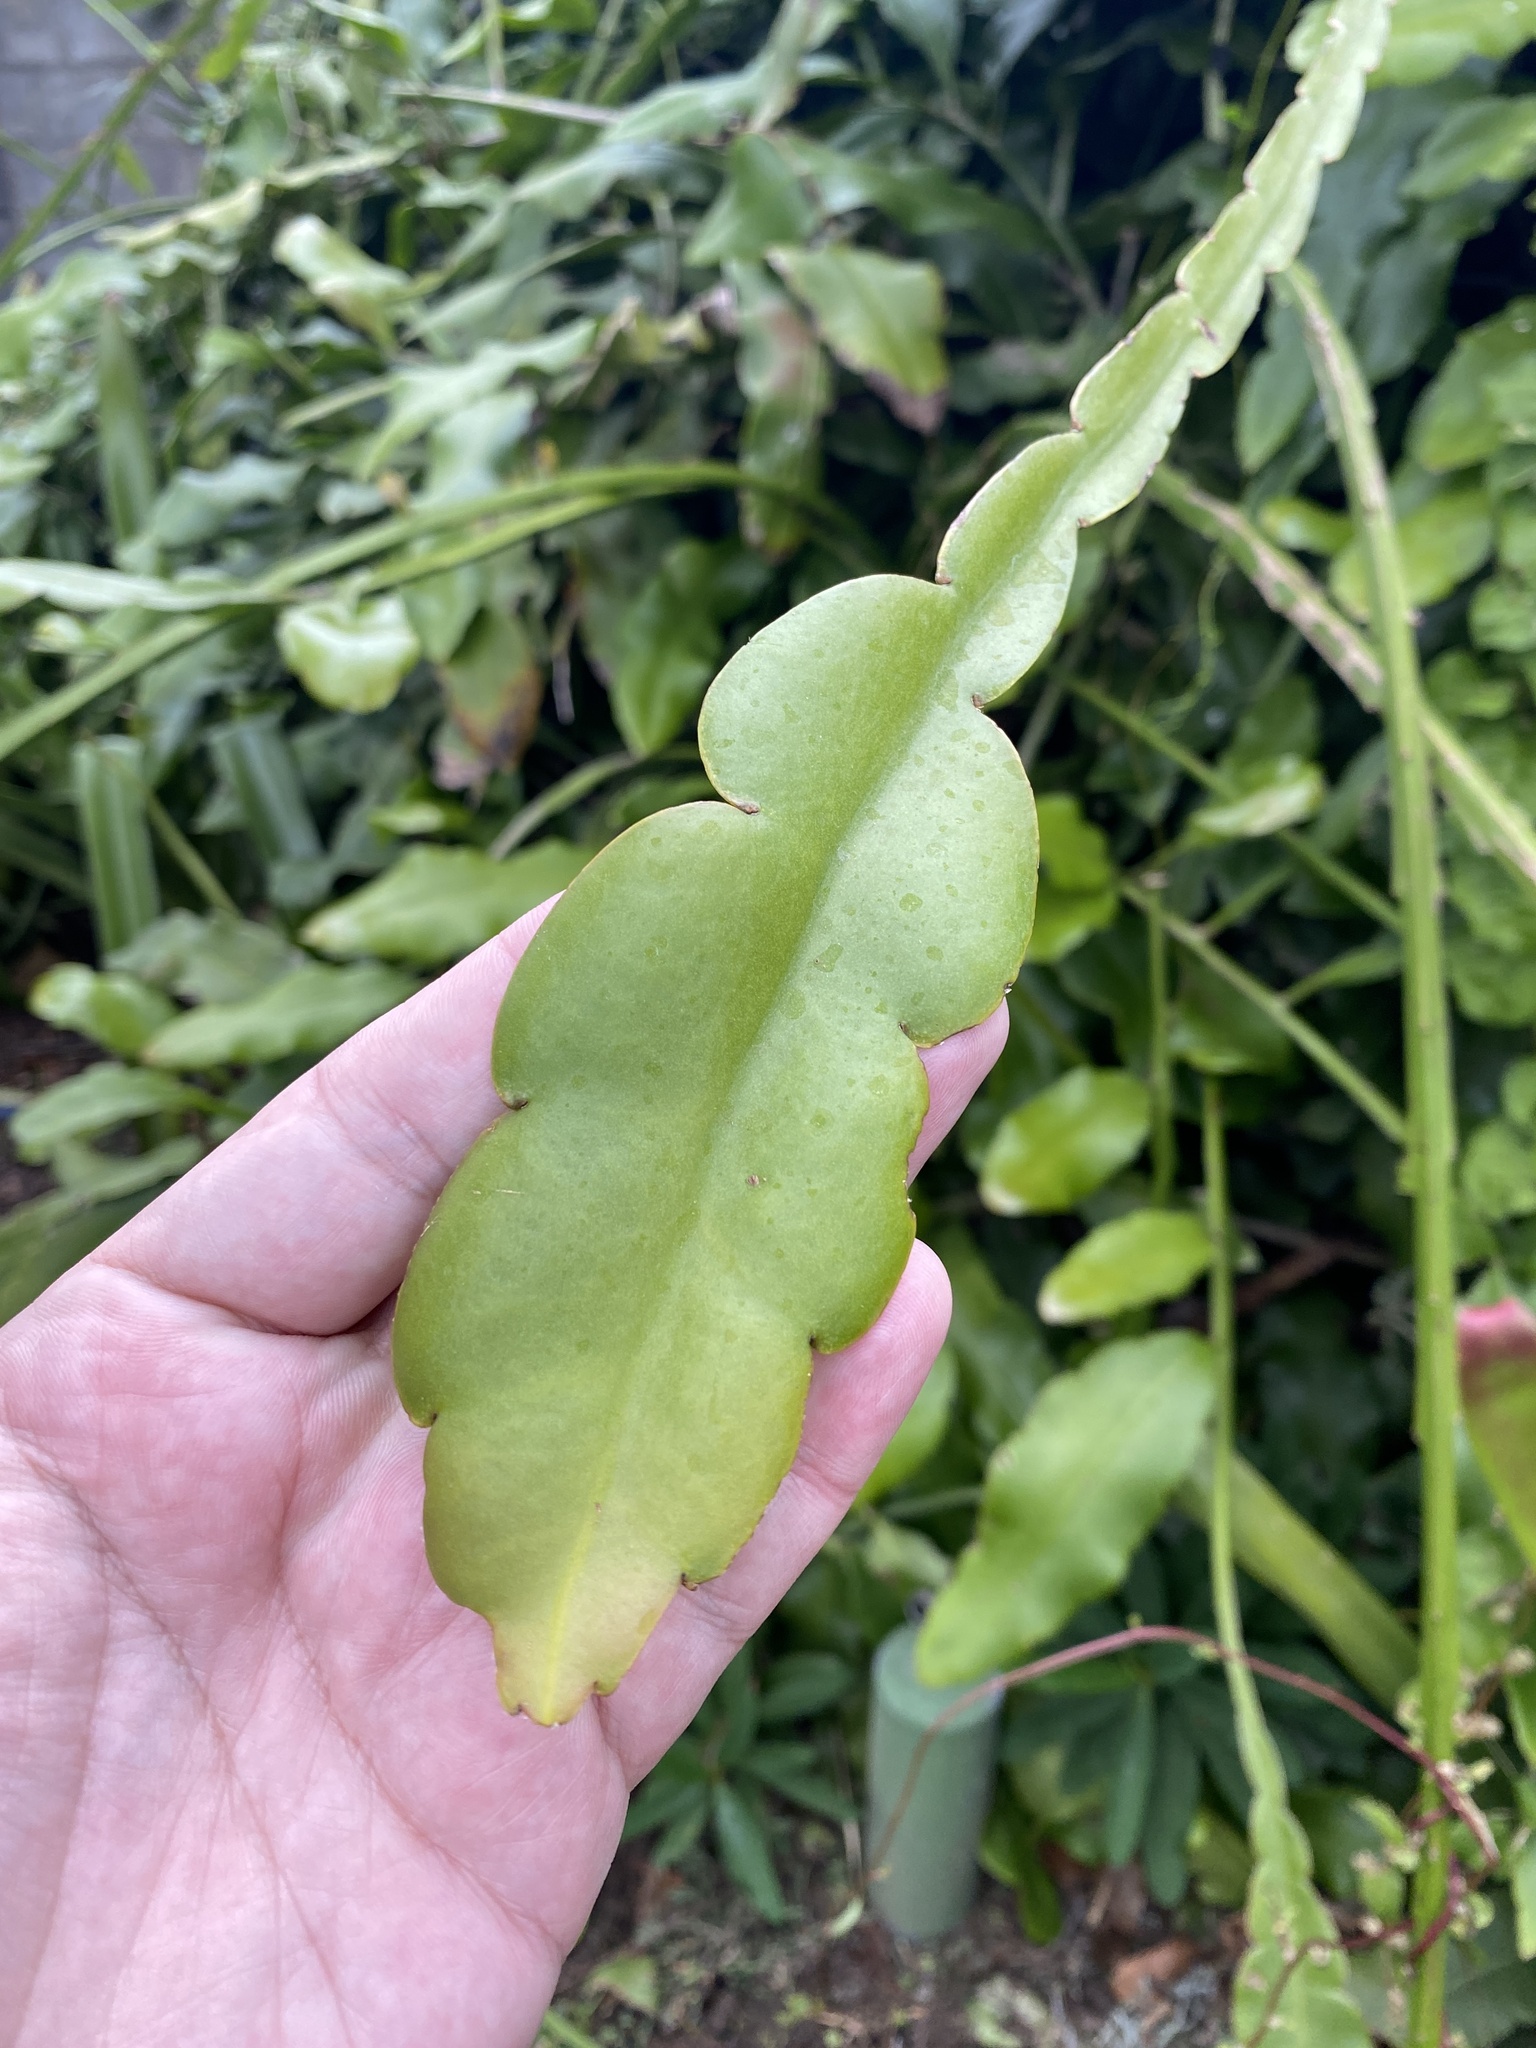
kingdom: Plantae
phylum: Tracheophyta
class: Magnoliopsida
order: Caryophyllales
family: Cactaceae
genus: Epiphyllum
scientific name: Epiphyllum thomasianum
